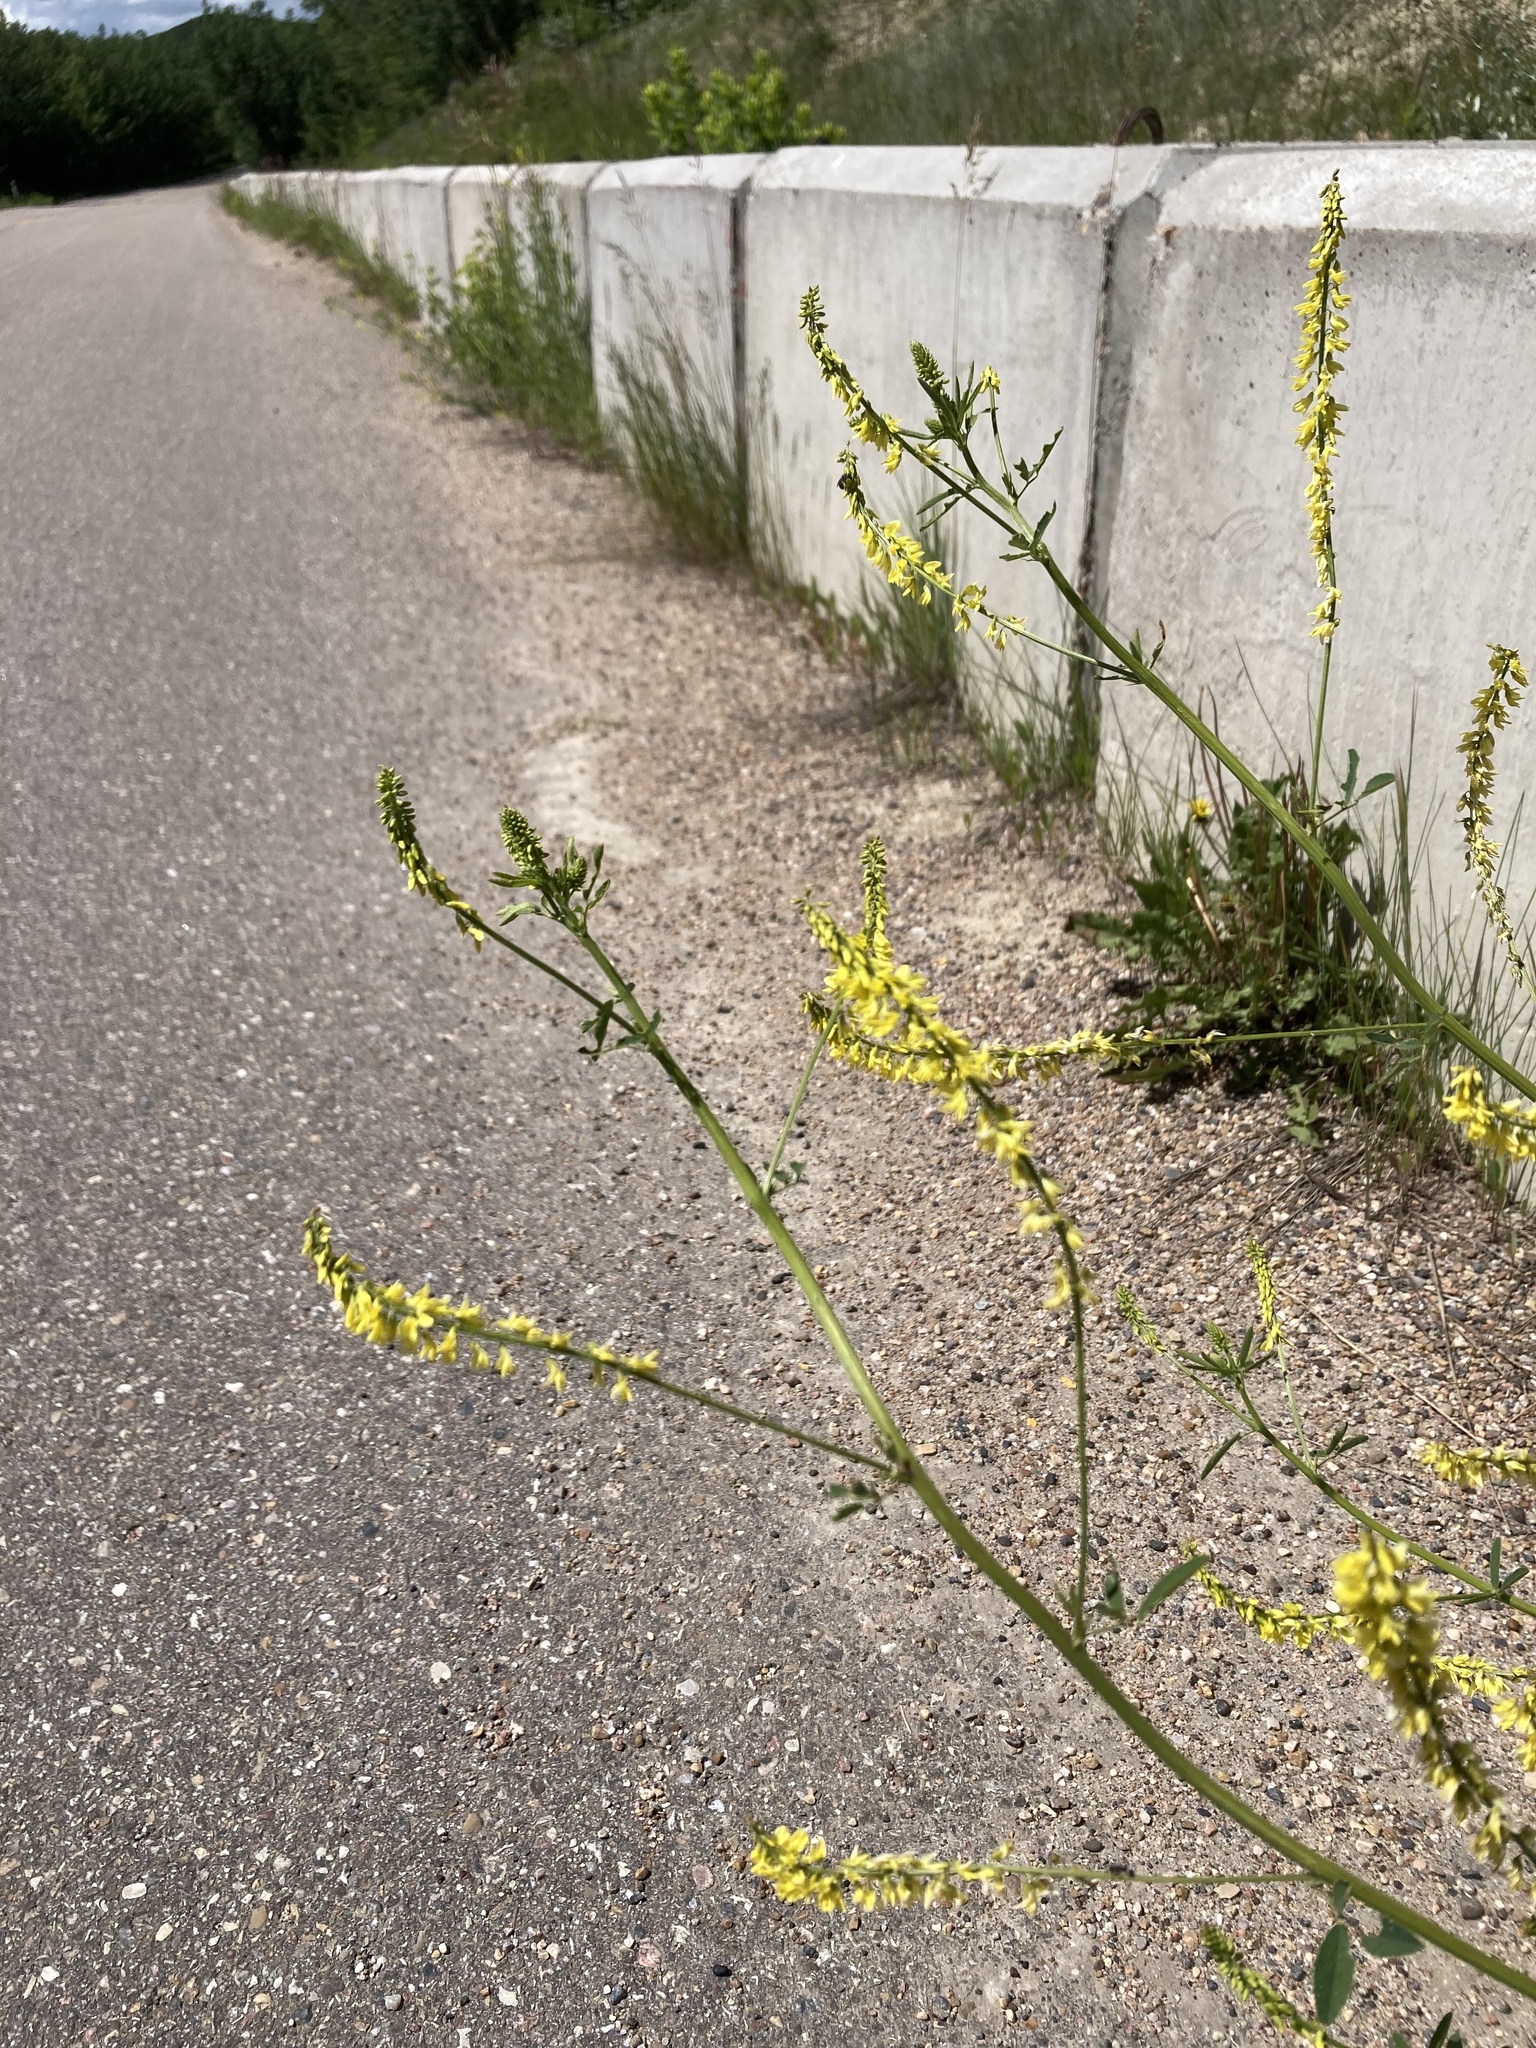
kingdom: Plantae
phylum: Tracheophyta
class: Magnoliopsida
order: Fabales
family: Fabaceae
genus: Melilotus
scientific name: Melilotus officinalis
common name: Sweetclover
